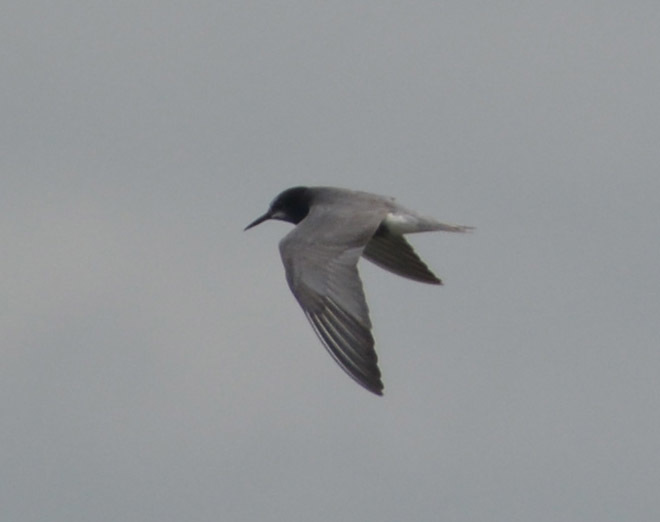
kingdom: Animalia
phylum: Chordata
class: Aves
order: Charadriiformes
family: Laridae
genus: Chlidonias
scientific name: Chlidonias niger
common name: Black tern
